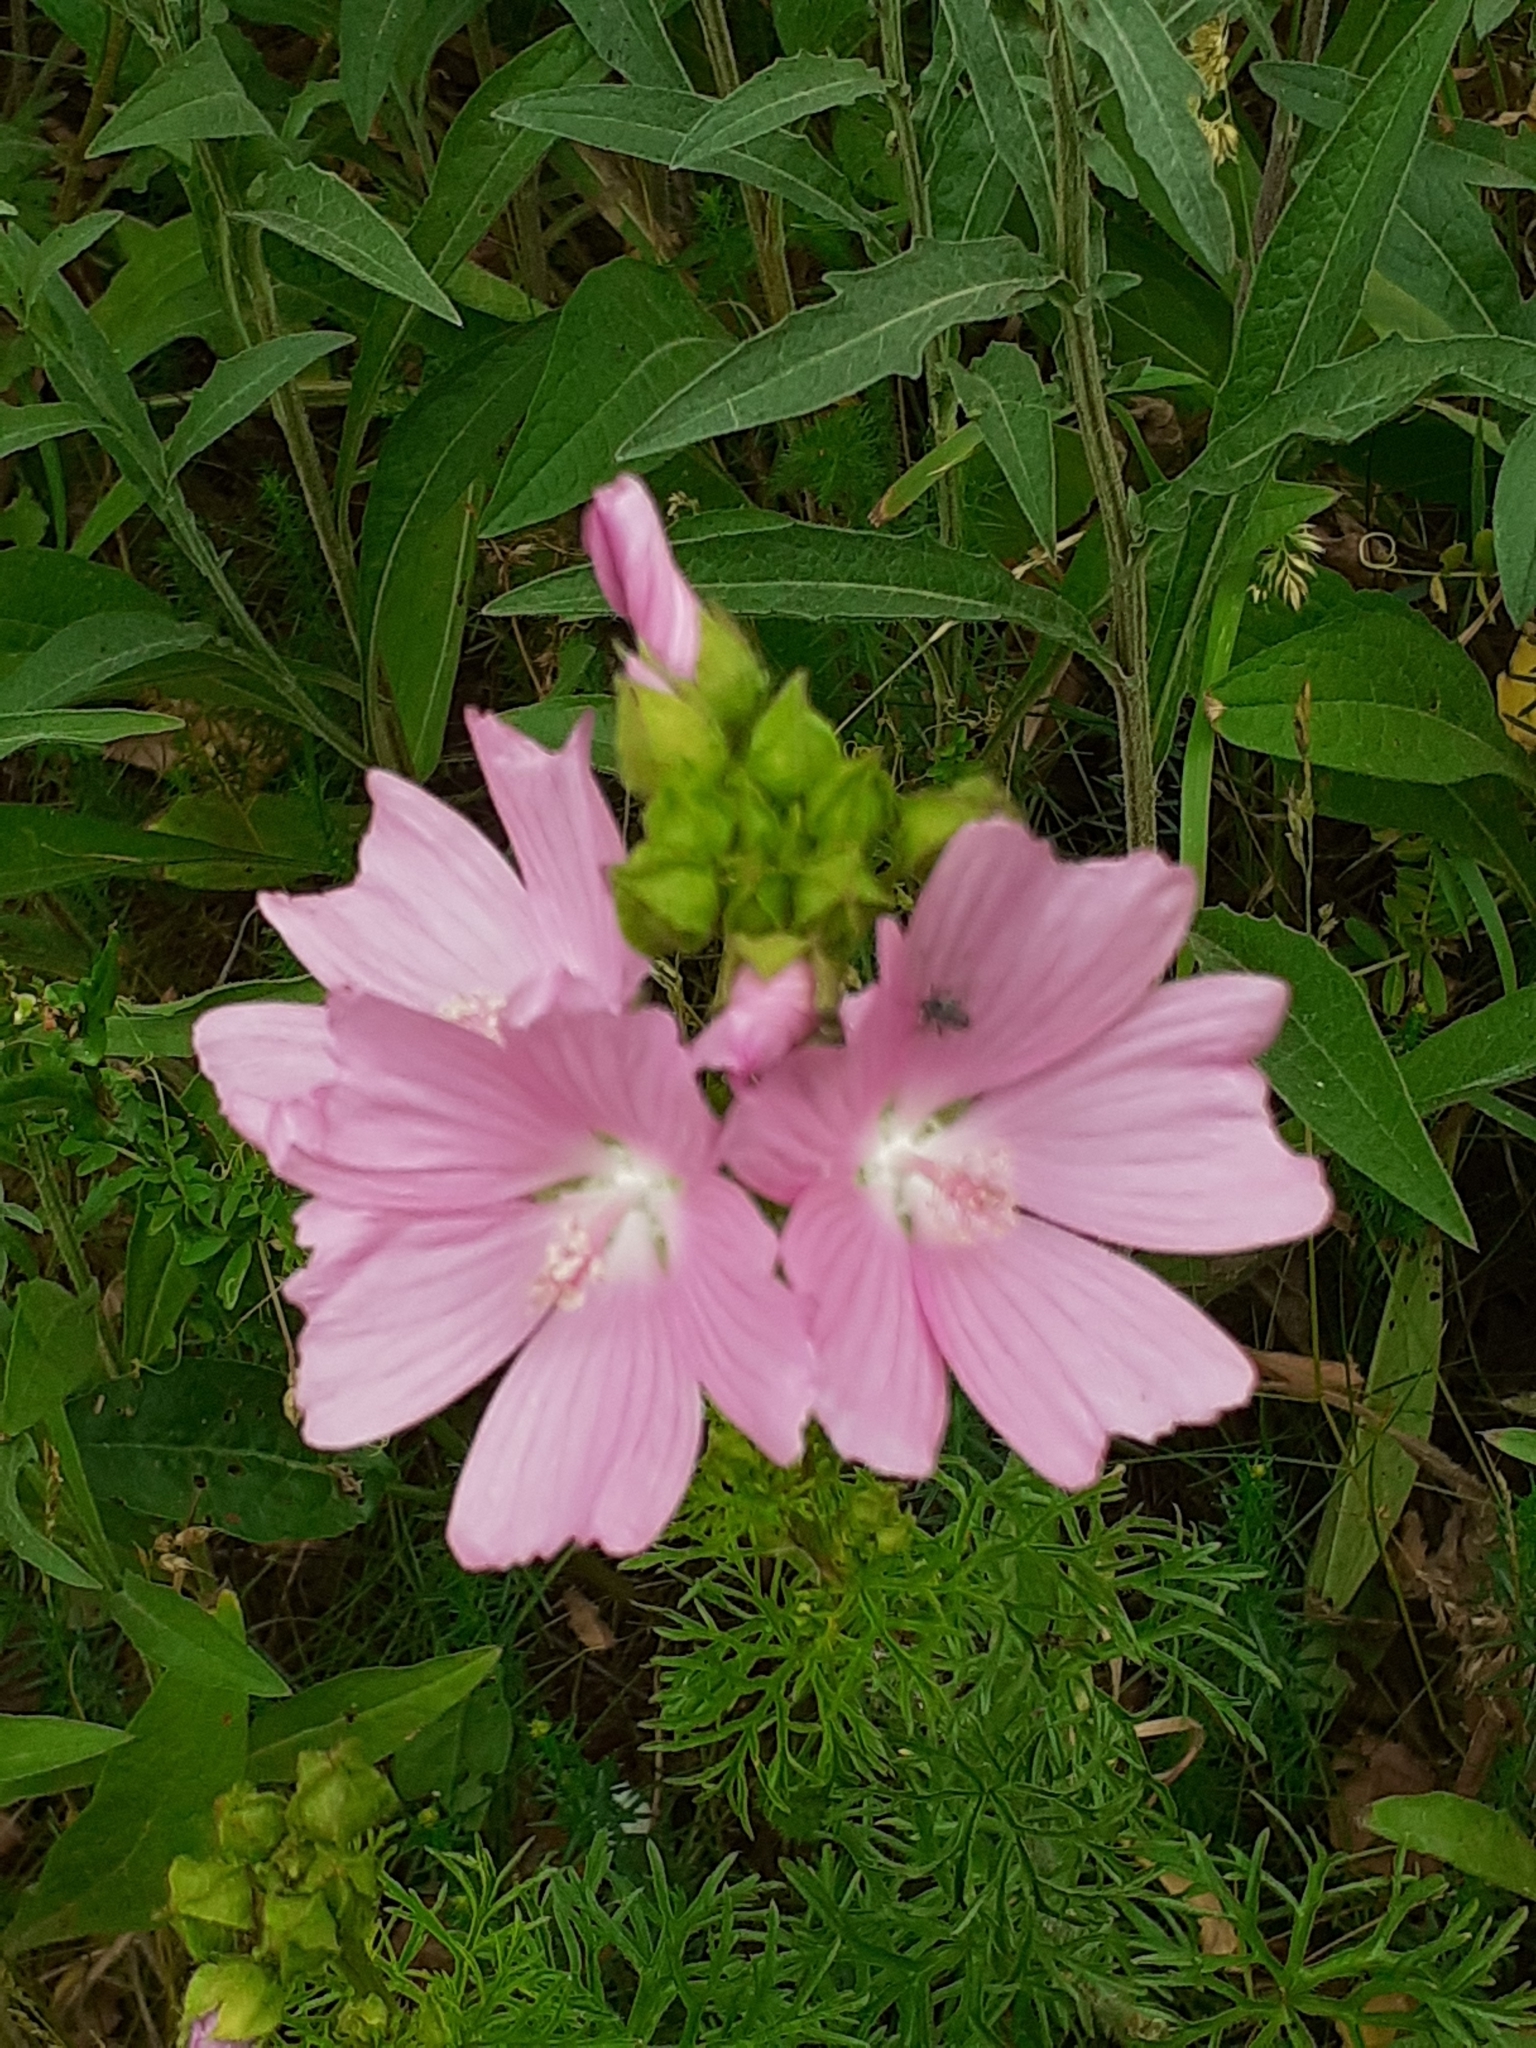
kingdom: Plantae
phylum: Tracheophyta
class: Magnoliopsida
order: Malvales
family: Malvaceae
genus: Malva
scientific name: Malva moschata
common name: Musk mallow
